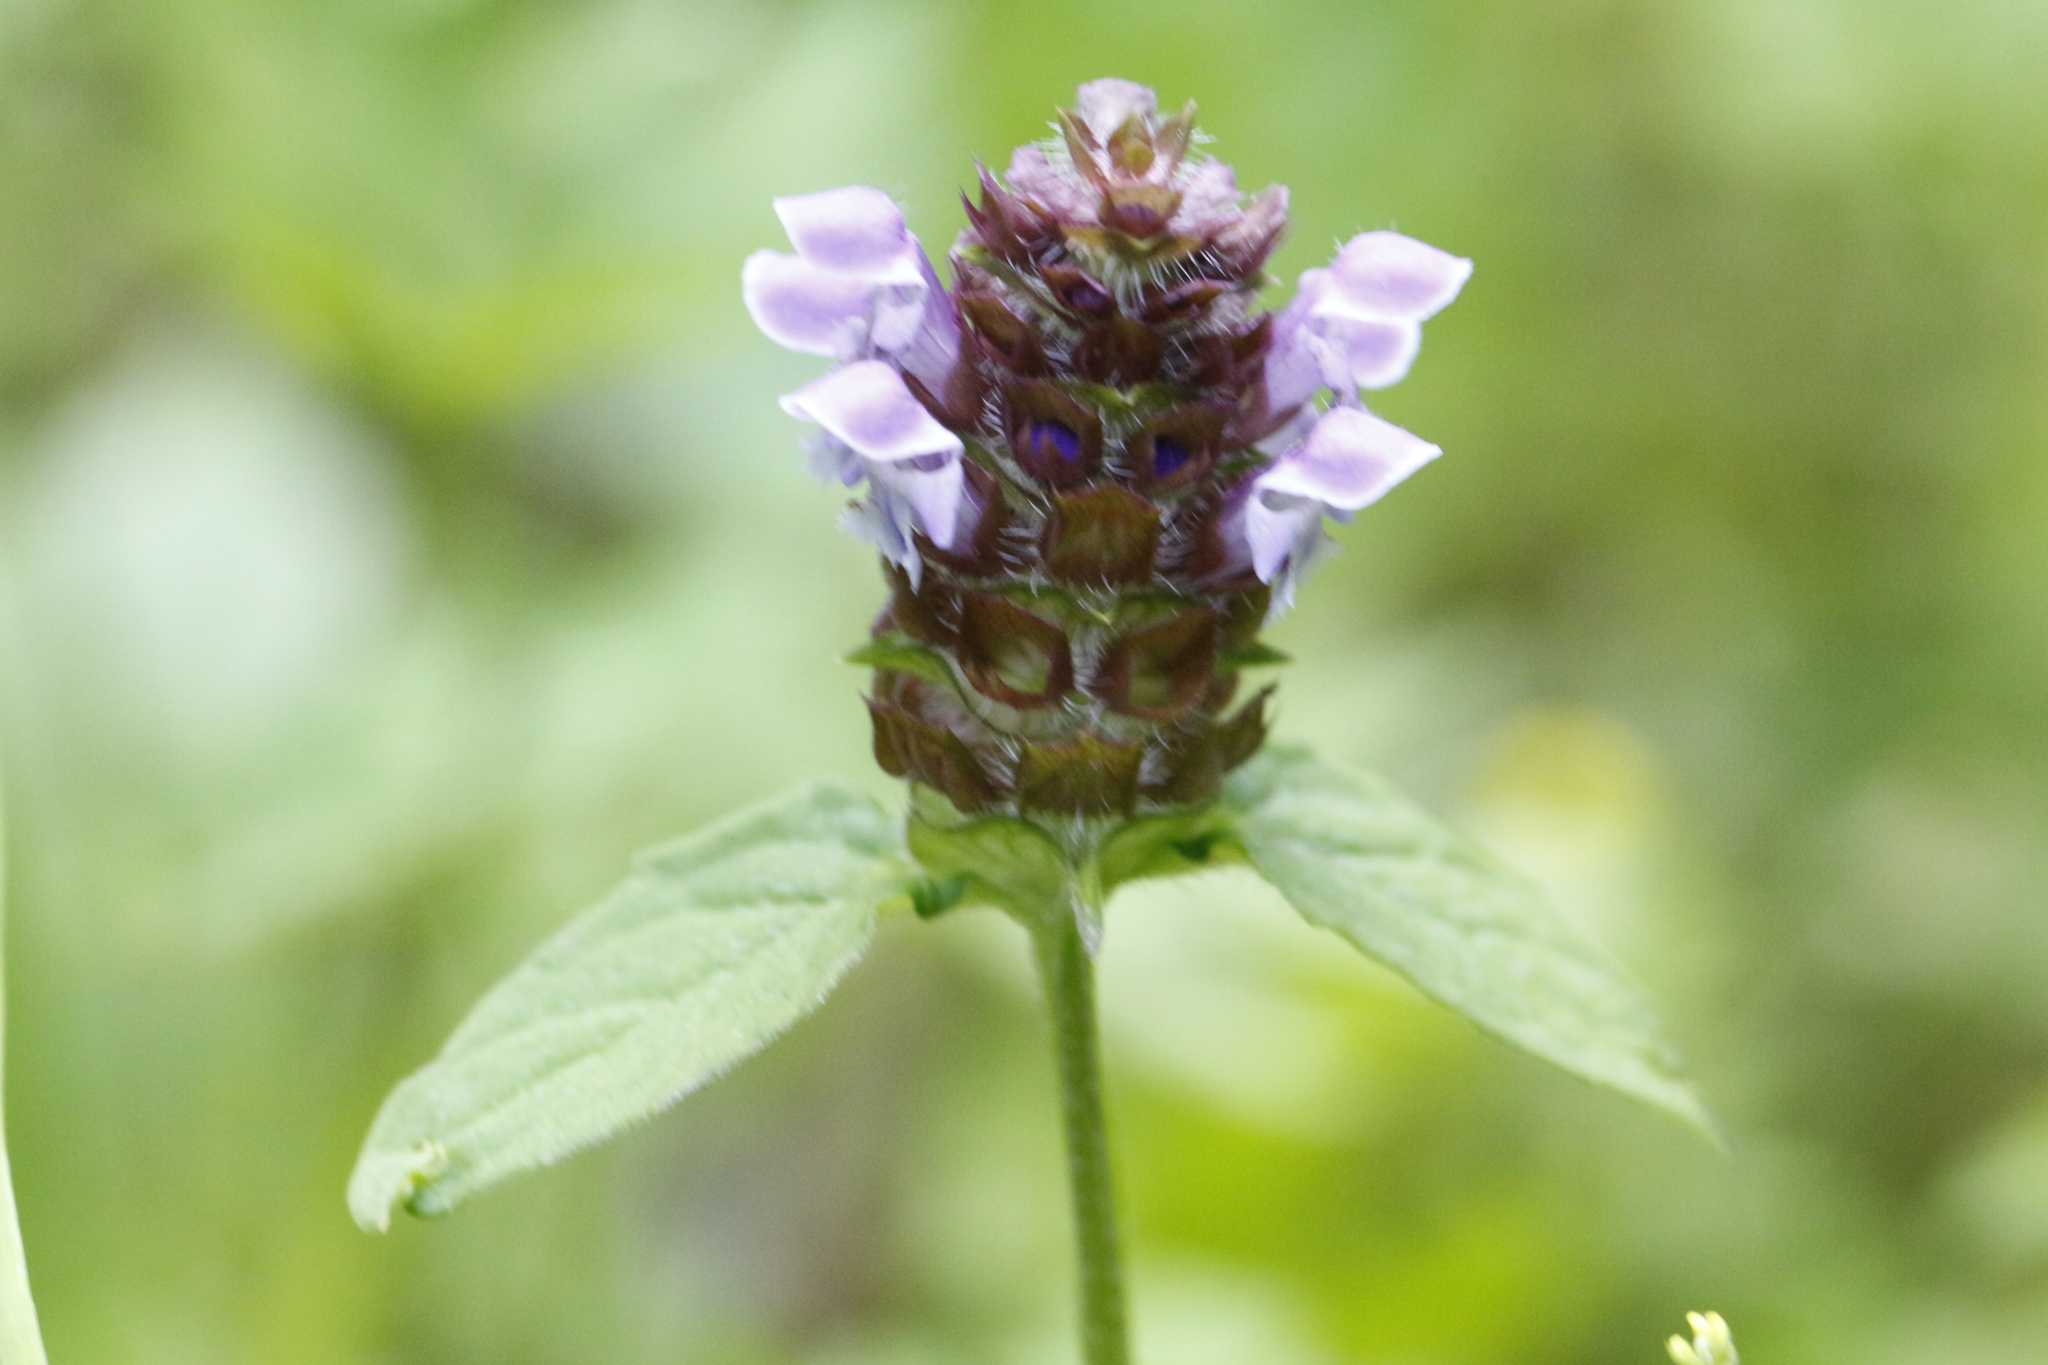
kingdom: Plantae
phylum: Tracheophyta
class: Magnoliopsida
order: Lamiales
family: Lamiaceae
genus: Prunella
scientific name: Prunella vulgaris
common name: Heal-all
